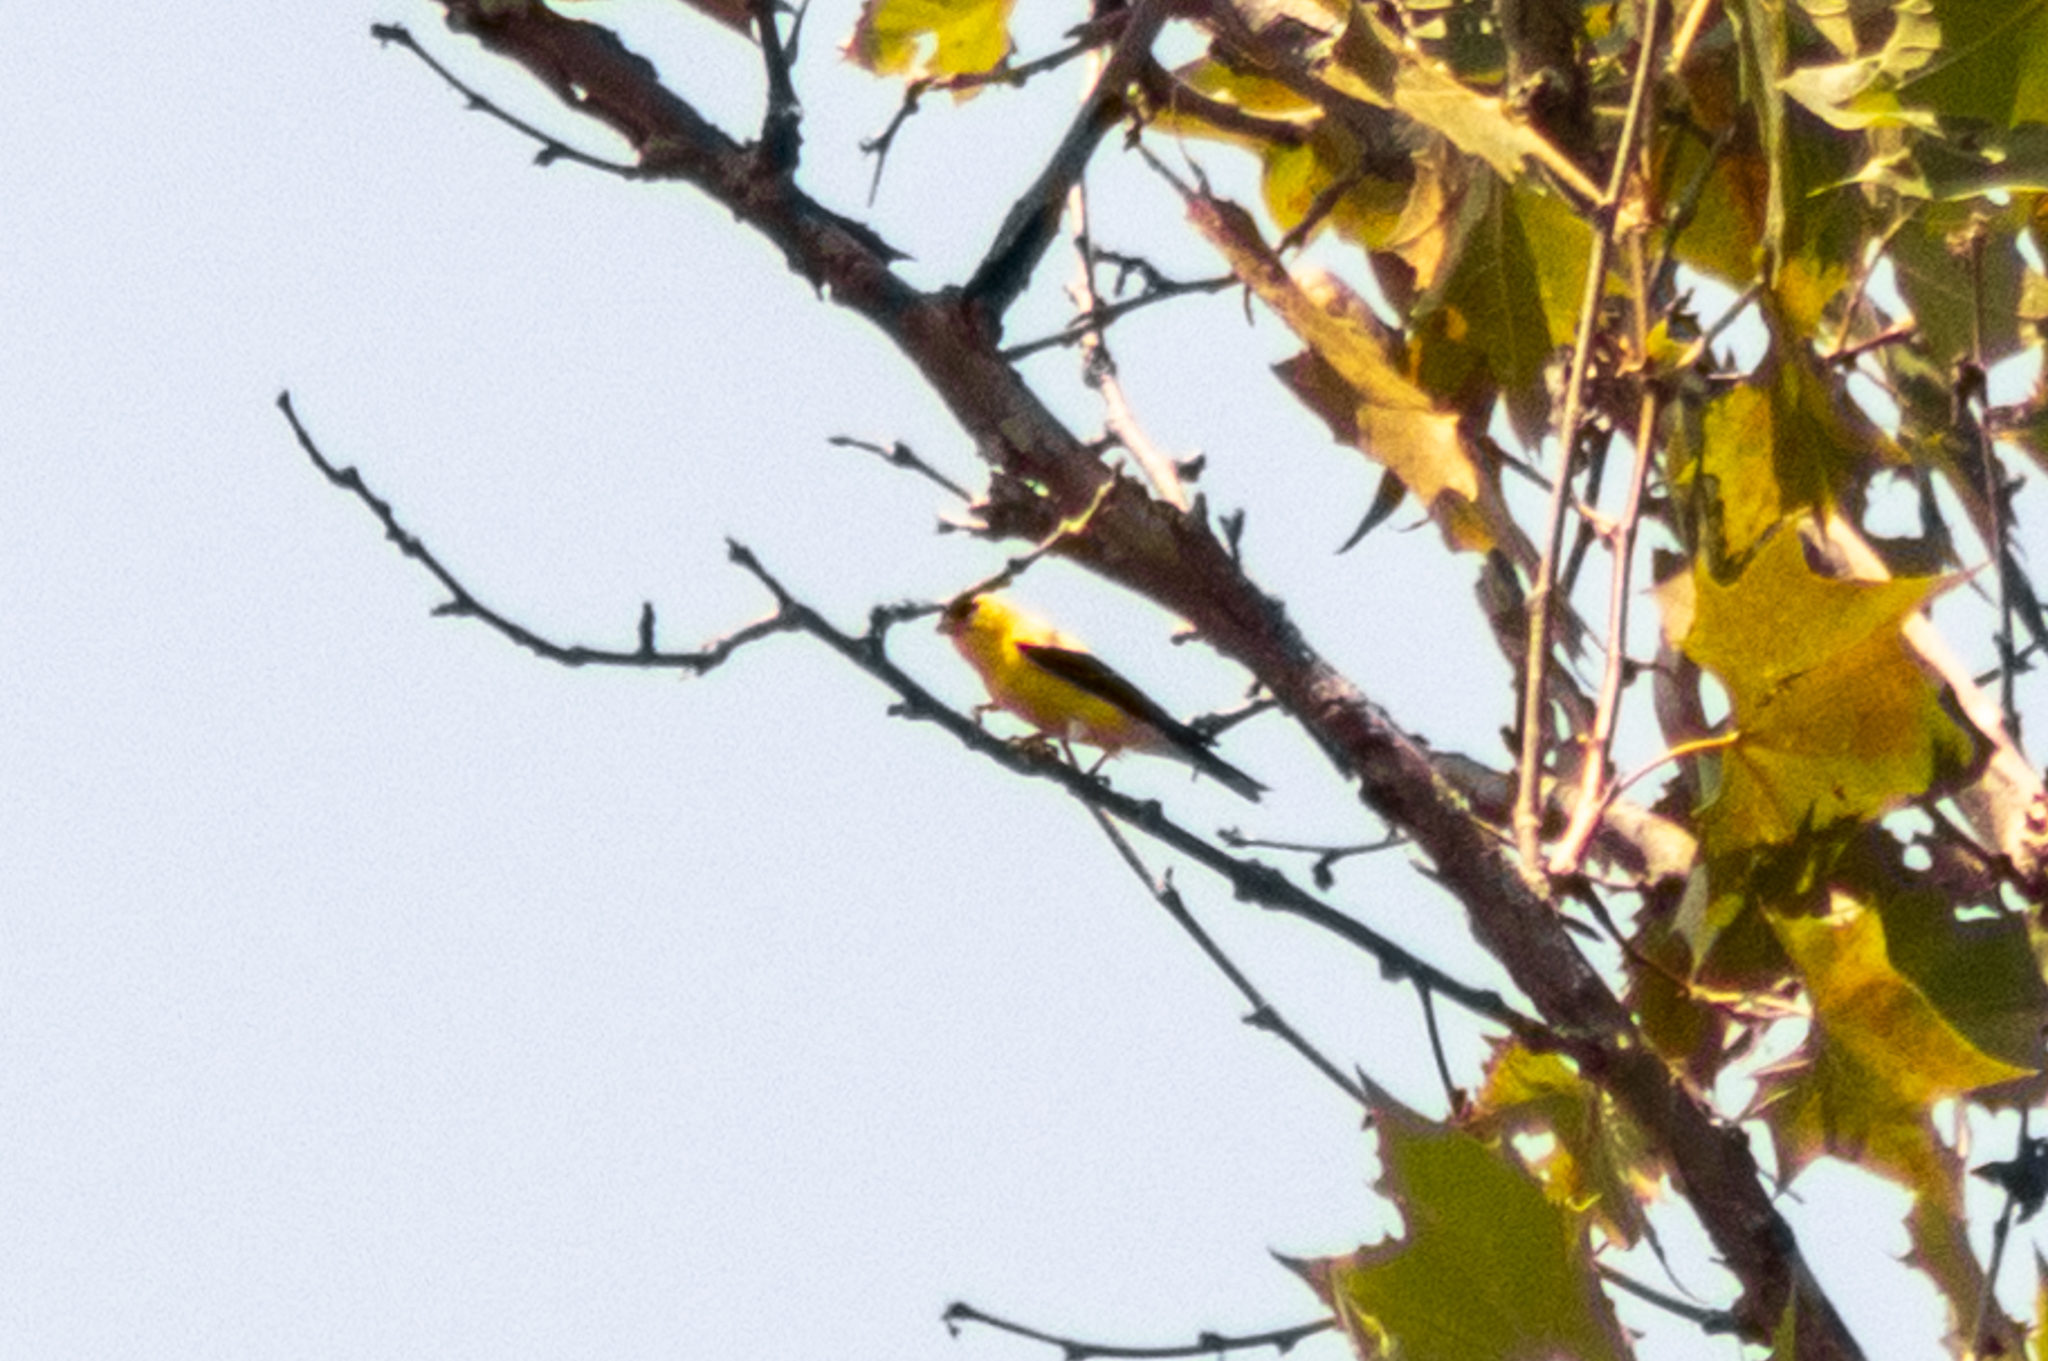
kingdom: Animalia
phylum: Chordata
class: Aves
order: Passeriformes
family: Fringillidae
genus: Spinus
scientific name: Spinus tristis
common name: American goldfinch
